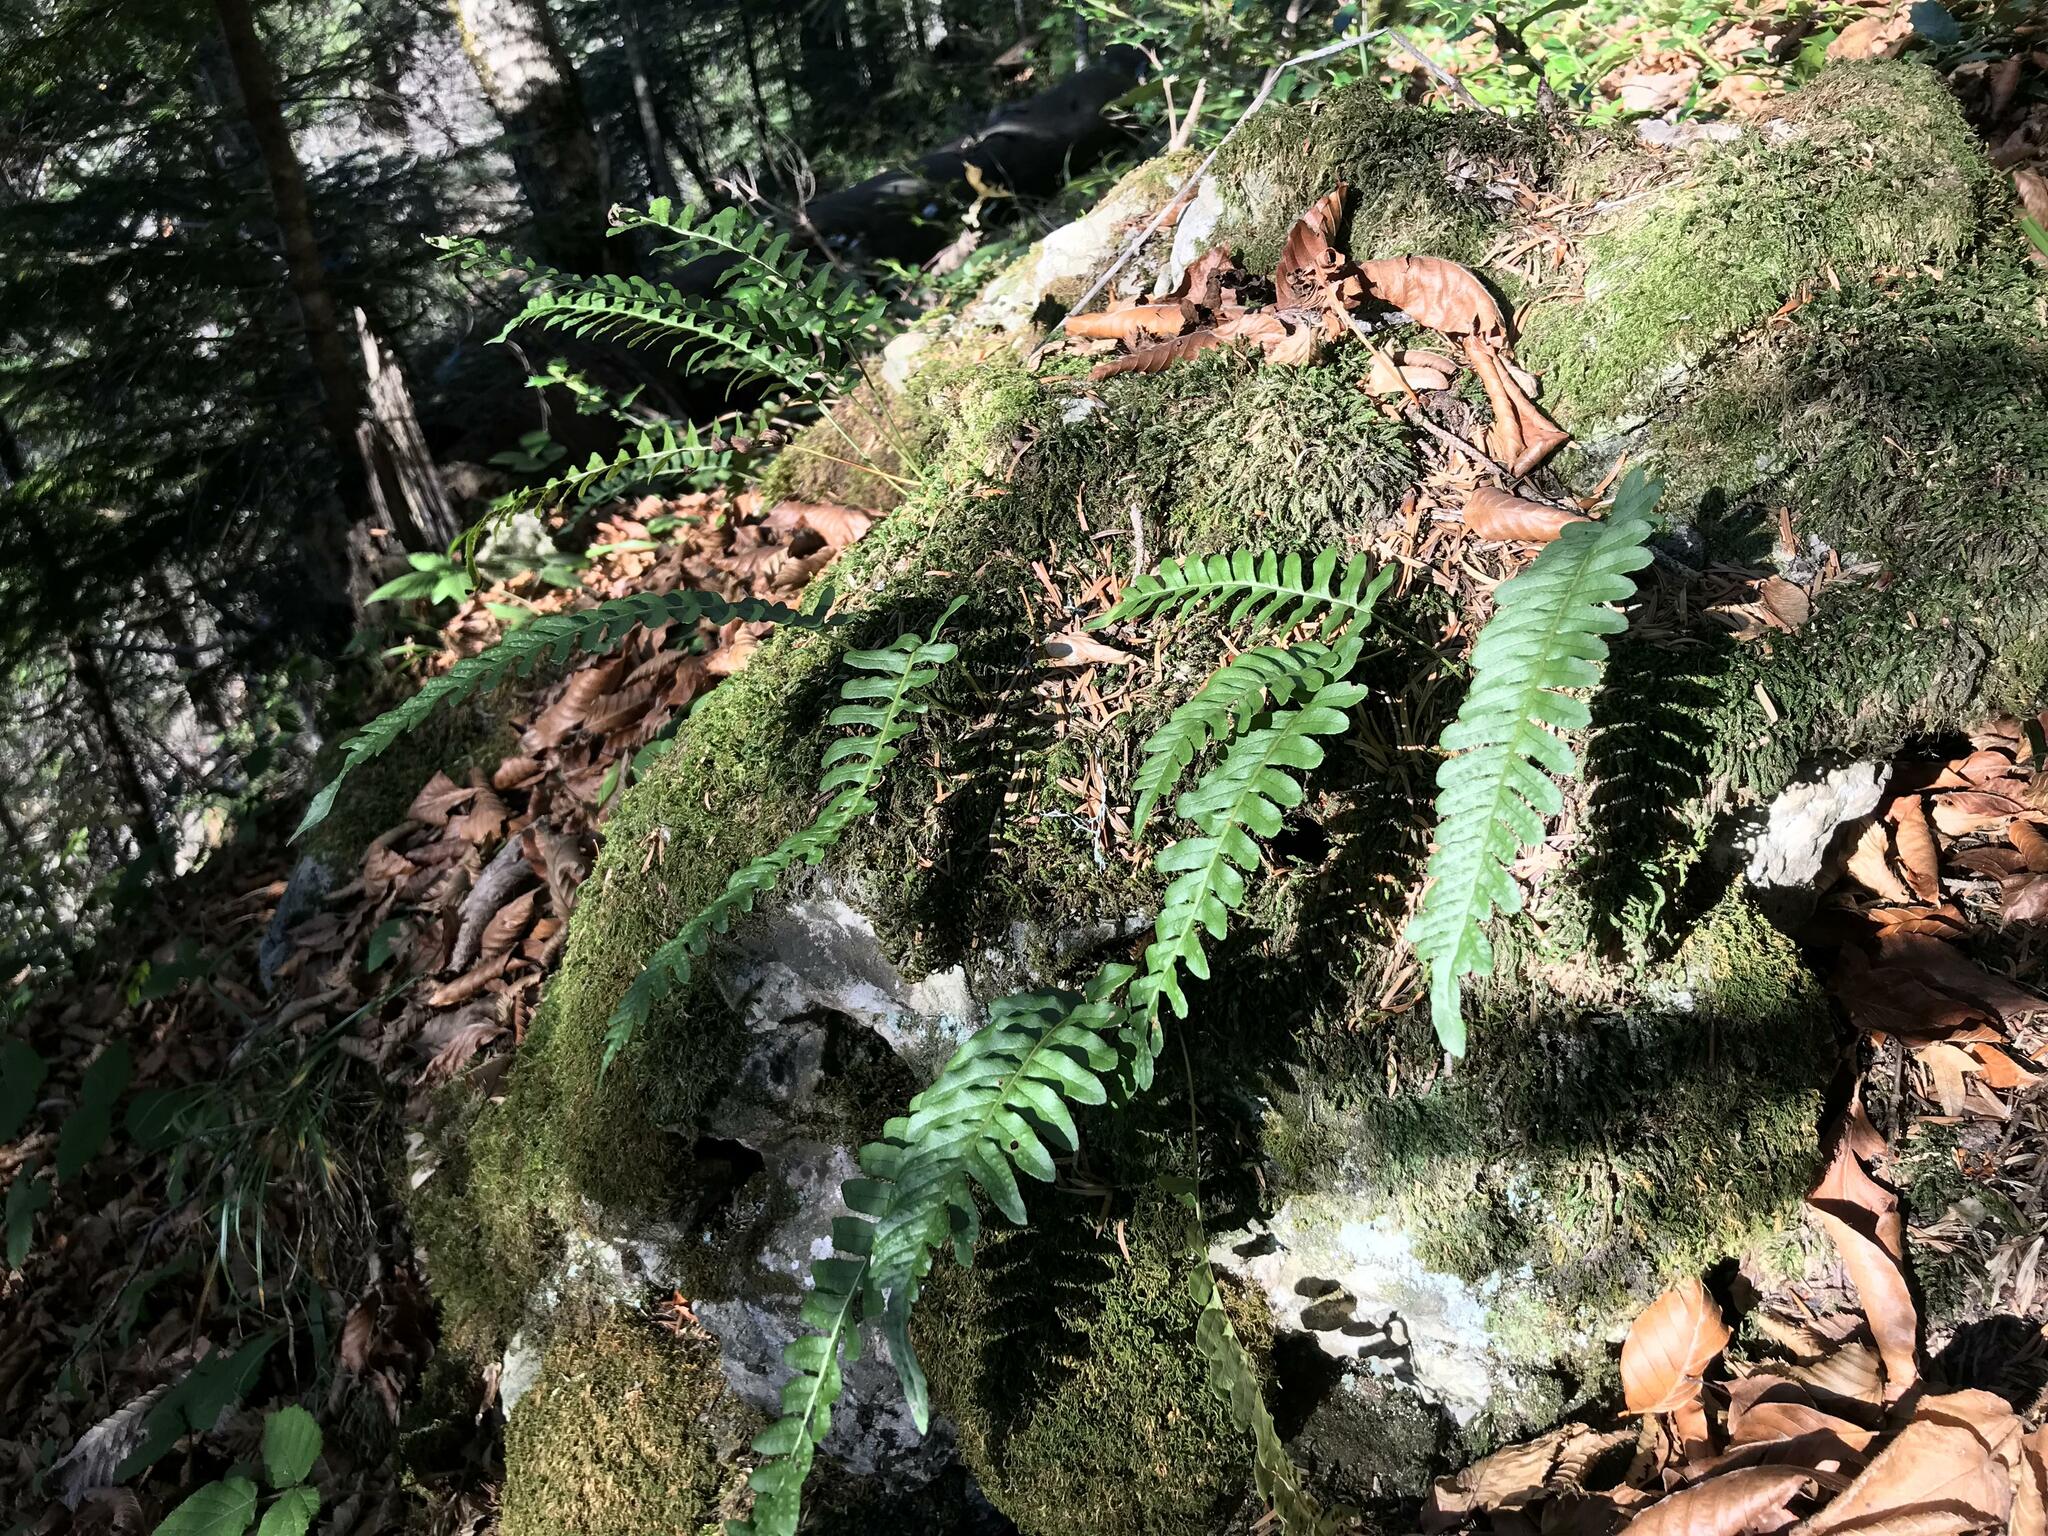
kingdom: Plantae
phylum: Tracheophyta
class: Polypodiopsida
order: Polypodiales
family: Polypodiaceae
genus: Polypodium
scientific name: Polypodium vulgare
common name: Common polypody
